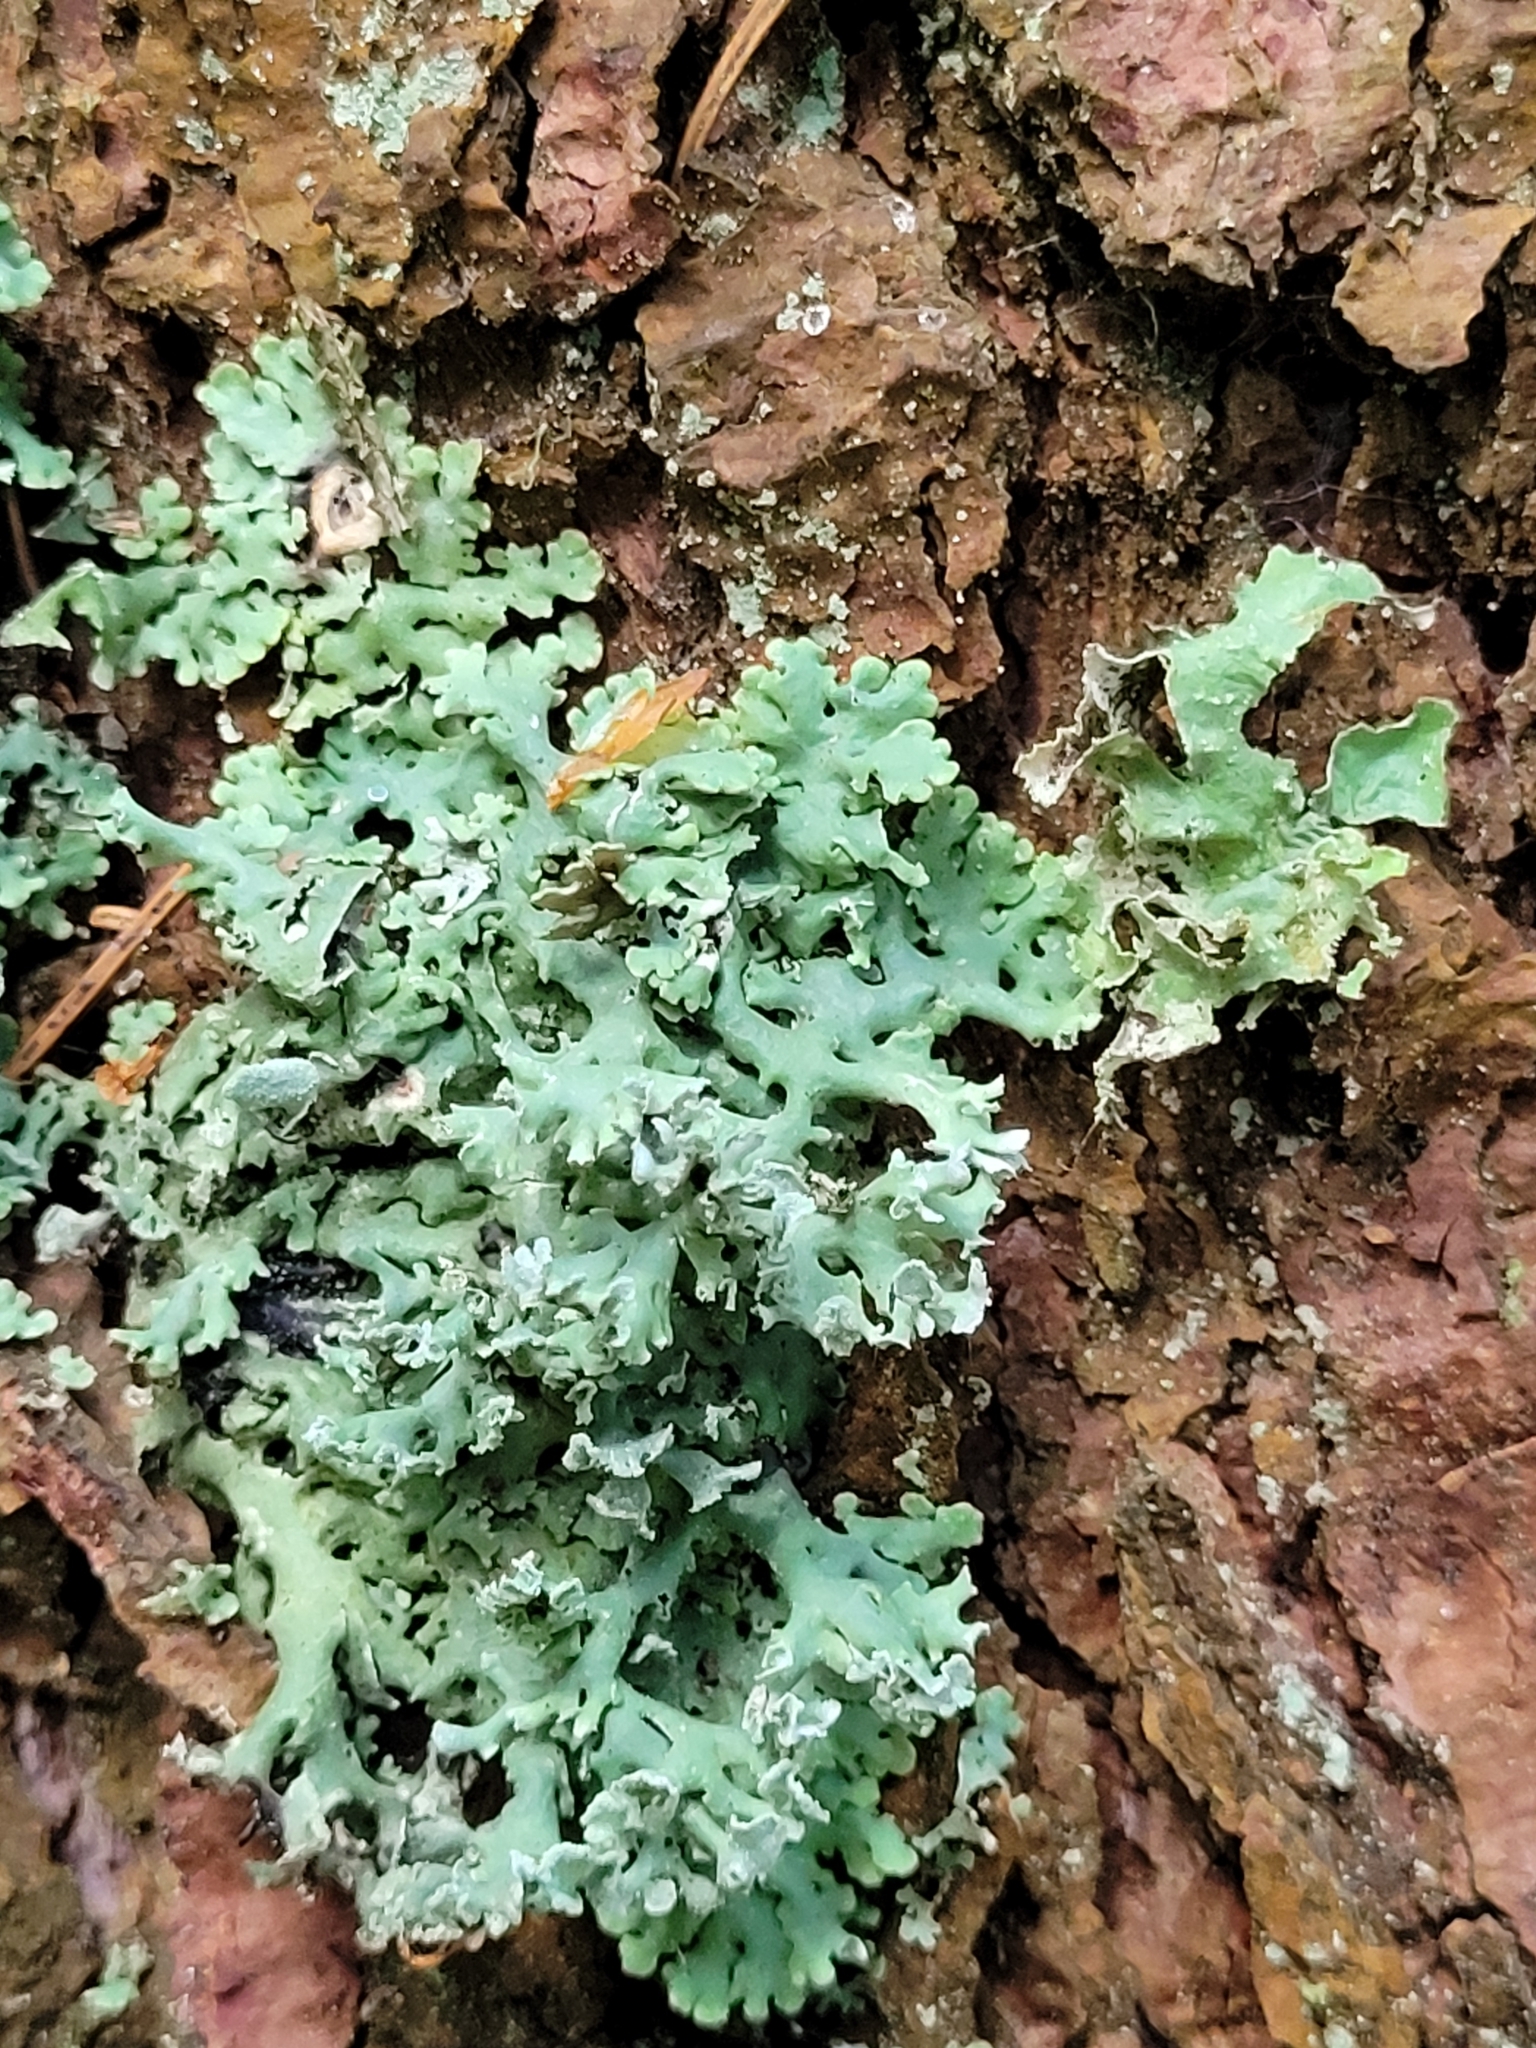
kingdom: Fungi
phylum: Ascomycota
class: Lecanoromycetes
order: Lecanorales
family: Parmeliaceae
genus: Hypogymnia
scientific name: Hypogymnia physodes
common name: Dark crottle
